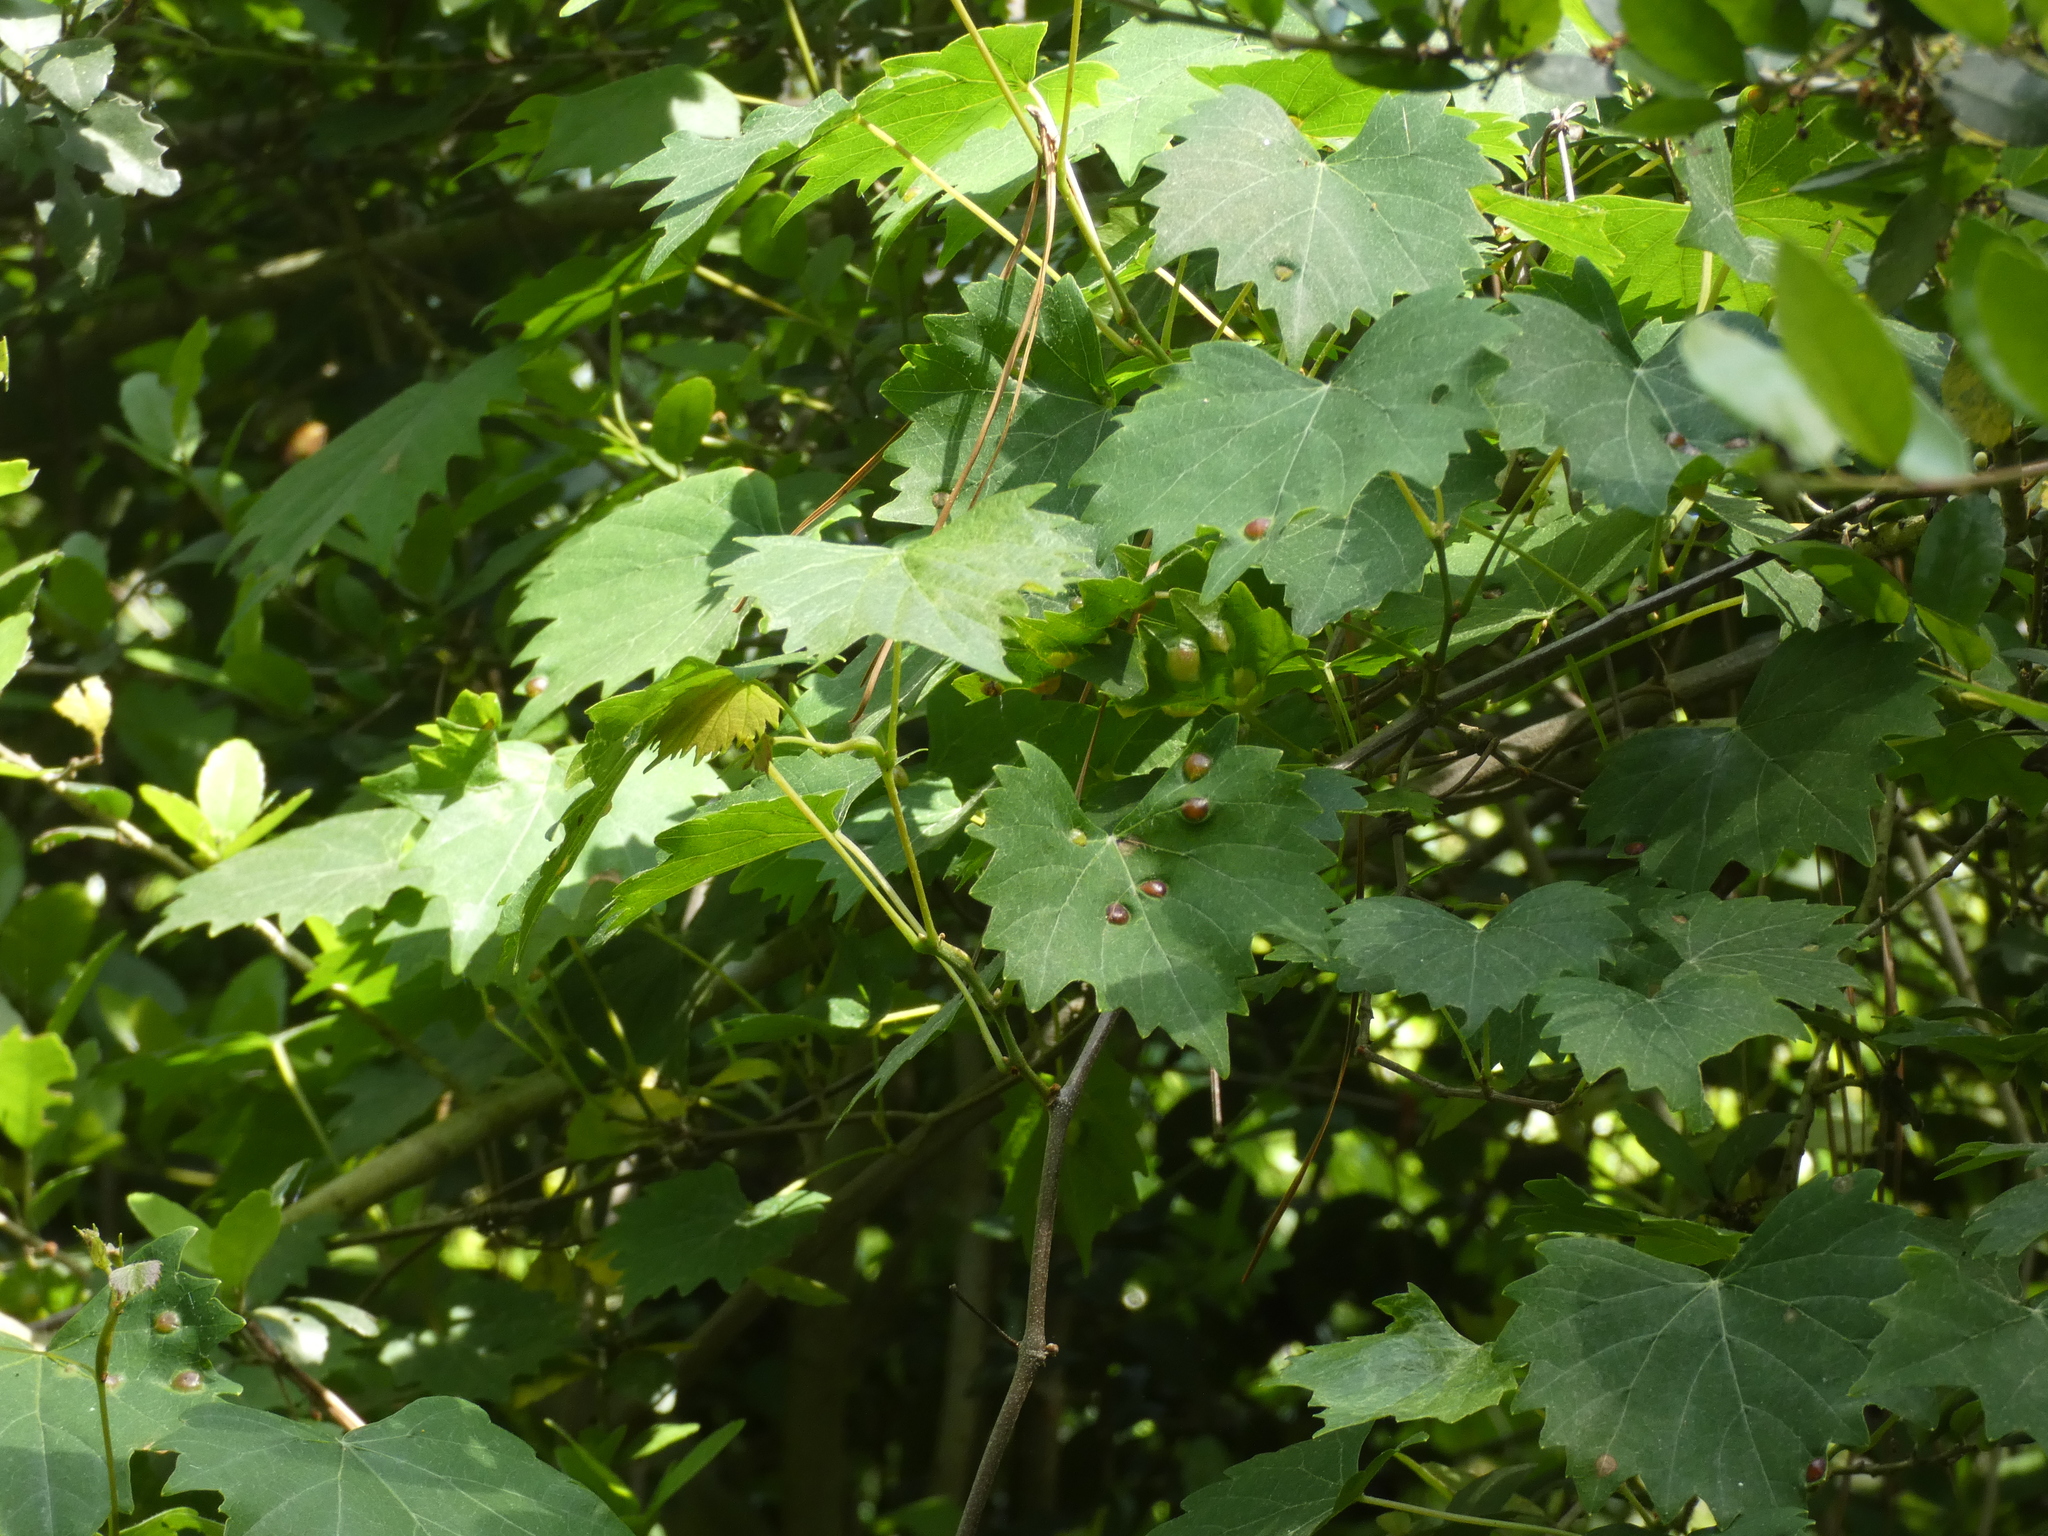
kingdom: Animalia
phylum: Arthropoda
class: Insecta
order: Diptera
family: Cecidomyiidae
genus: Vitisiella
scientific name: Vitisiella brevicauda
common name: Grape tumid gallmaker midge
